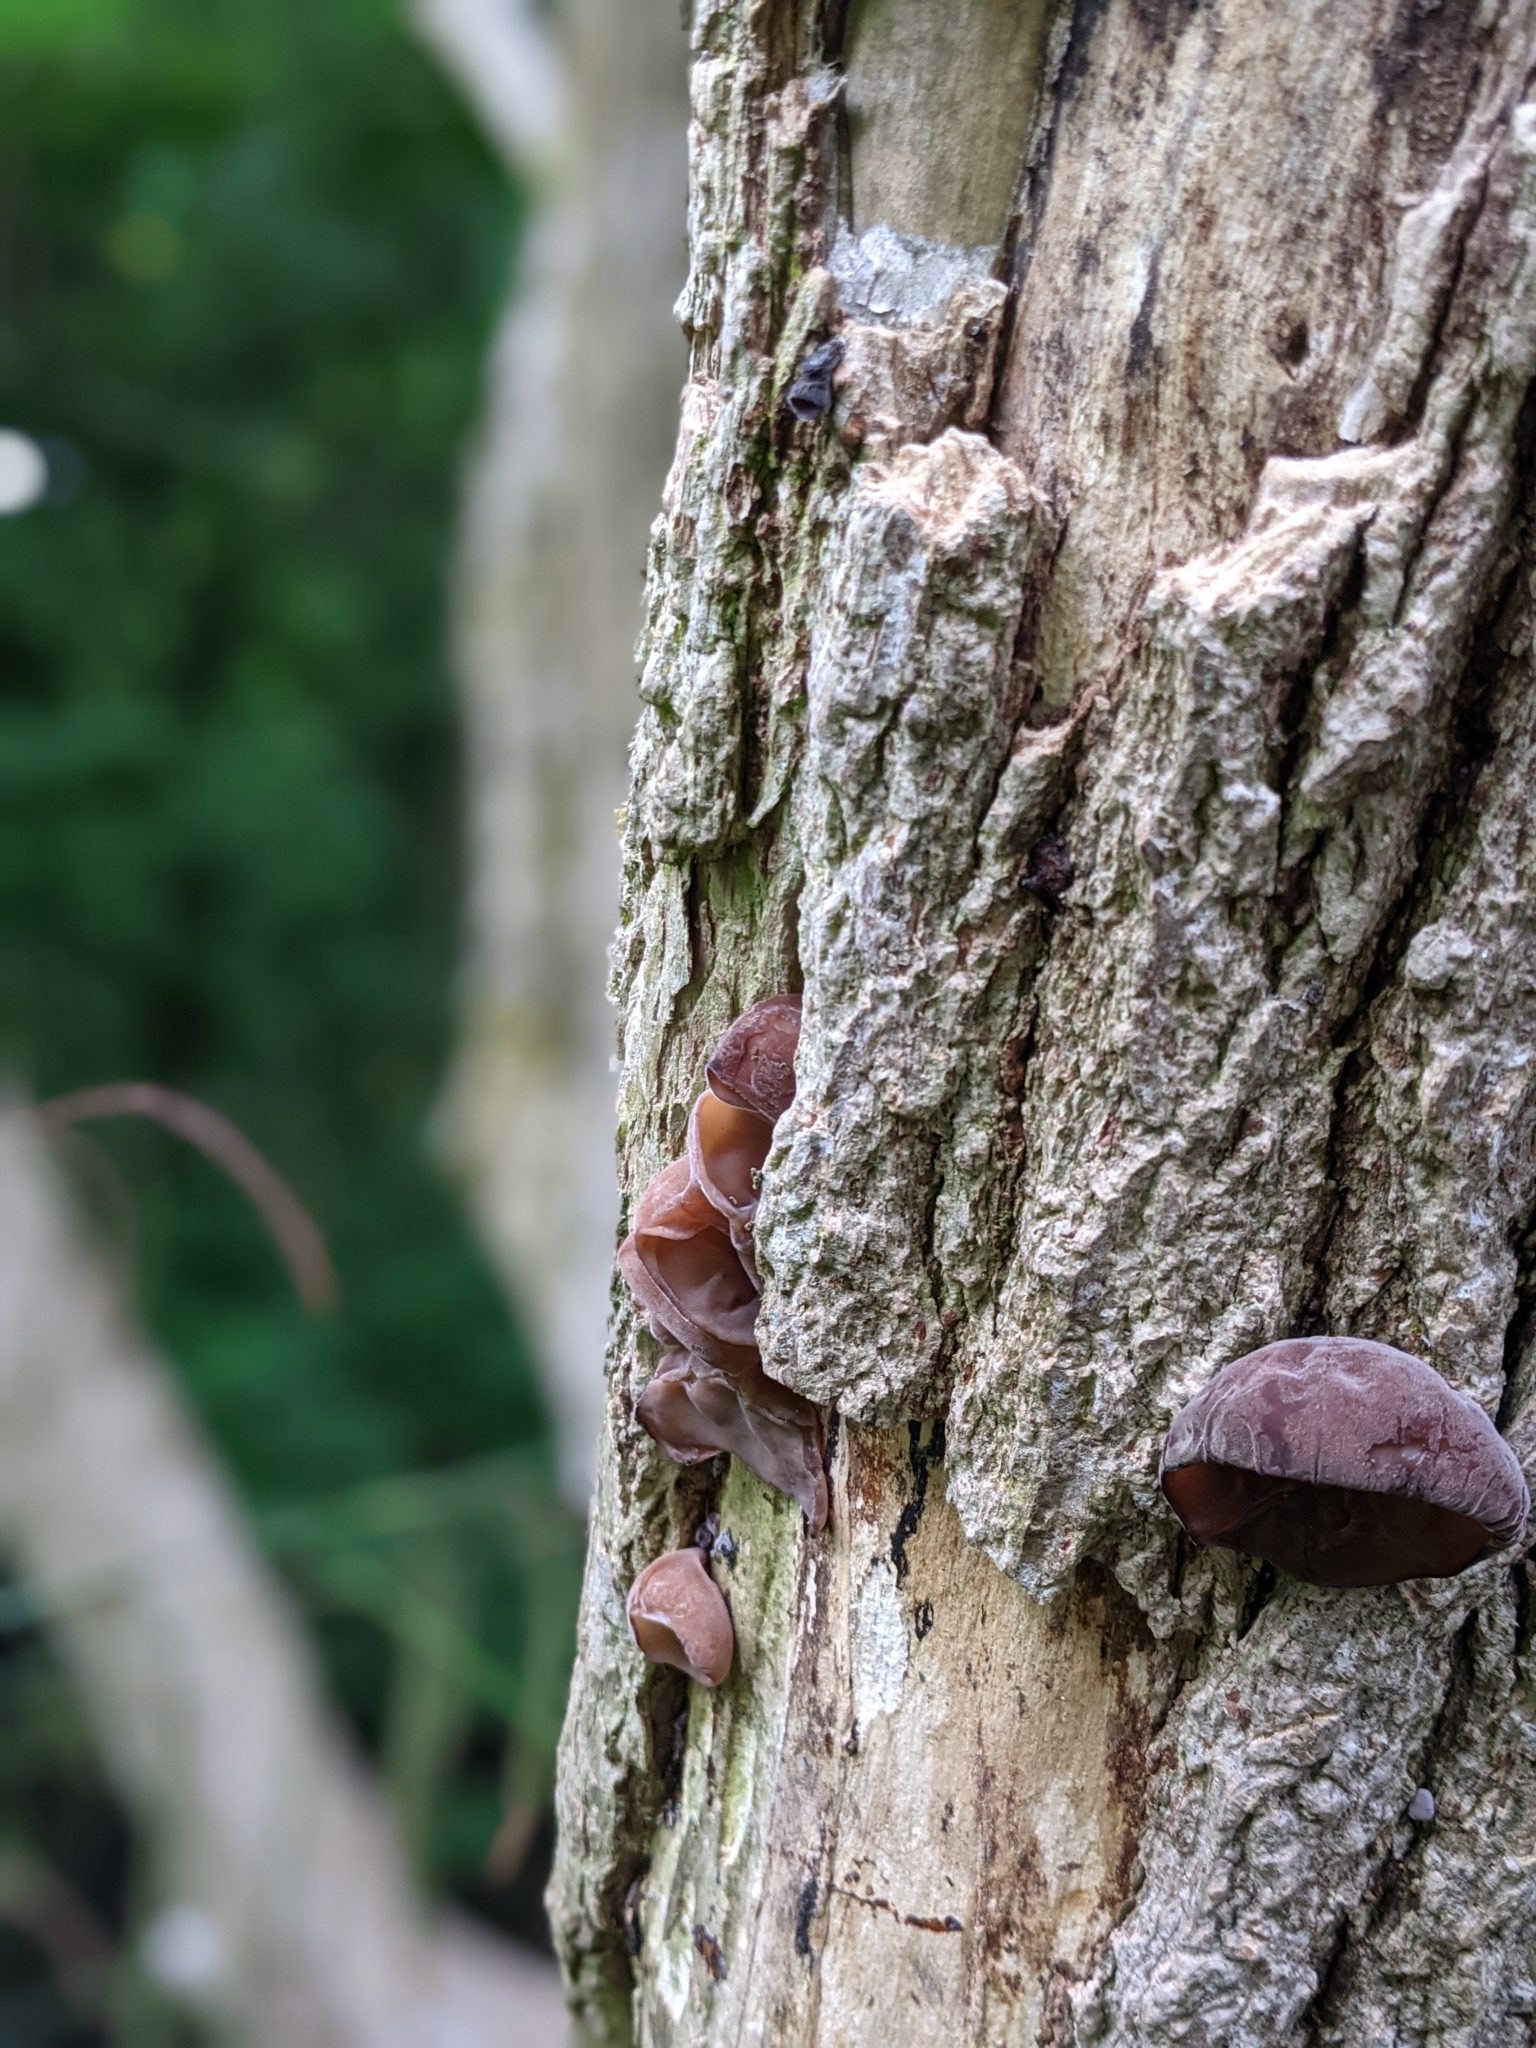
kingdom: Fungi
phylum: Basidiomycota
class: Agaricomycetes
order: Auriculariales
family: Auriculariaceae
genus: Auricularia
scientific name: Auricularia auricula-judae
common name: Jelly ear
